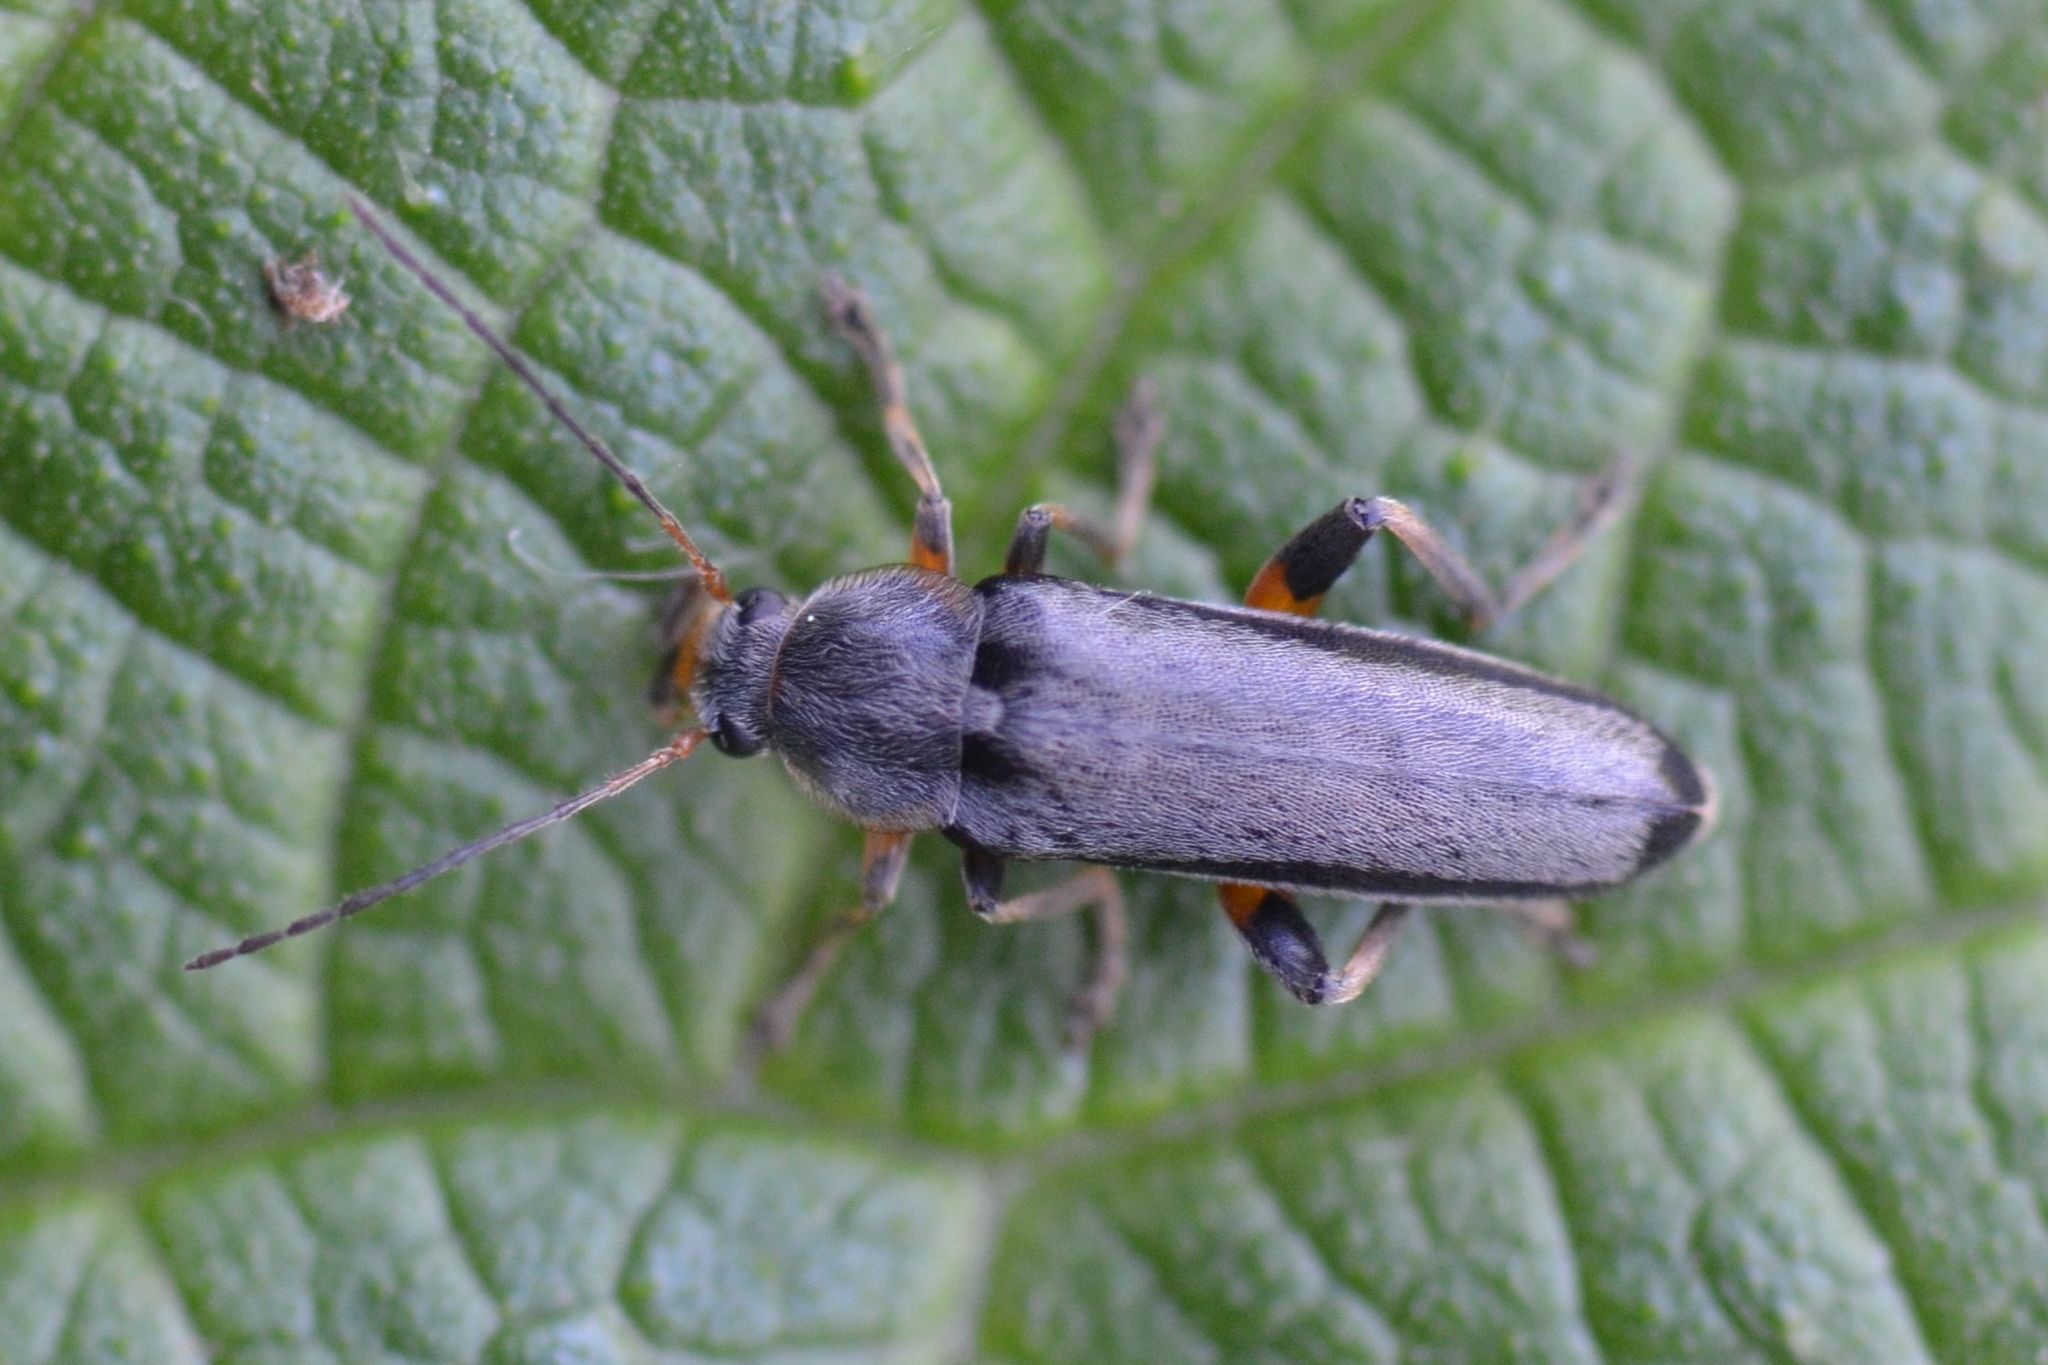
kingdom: Animalia
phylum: Arthropoda
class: Insecta
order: Coleoptera
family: Melandryidae
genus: Osphya
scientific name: Osphya bipunctata
